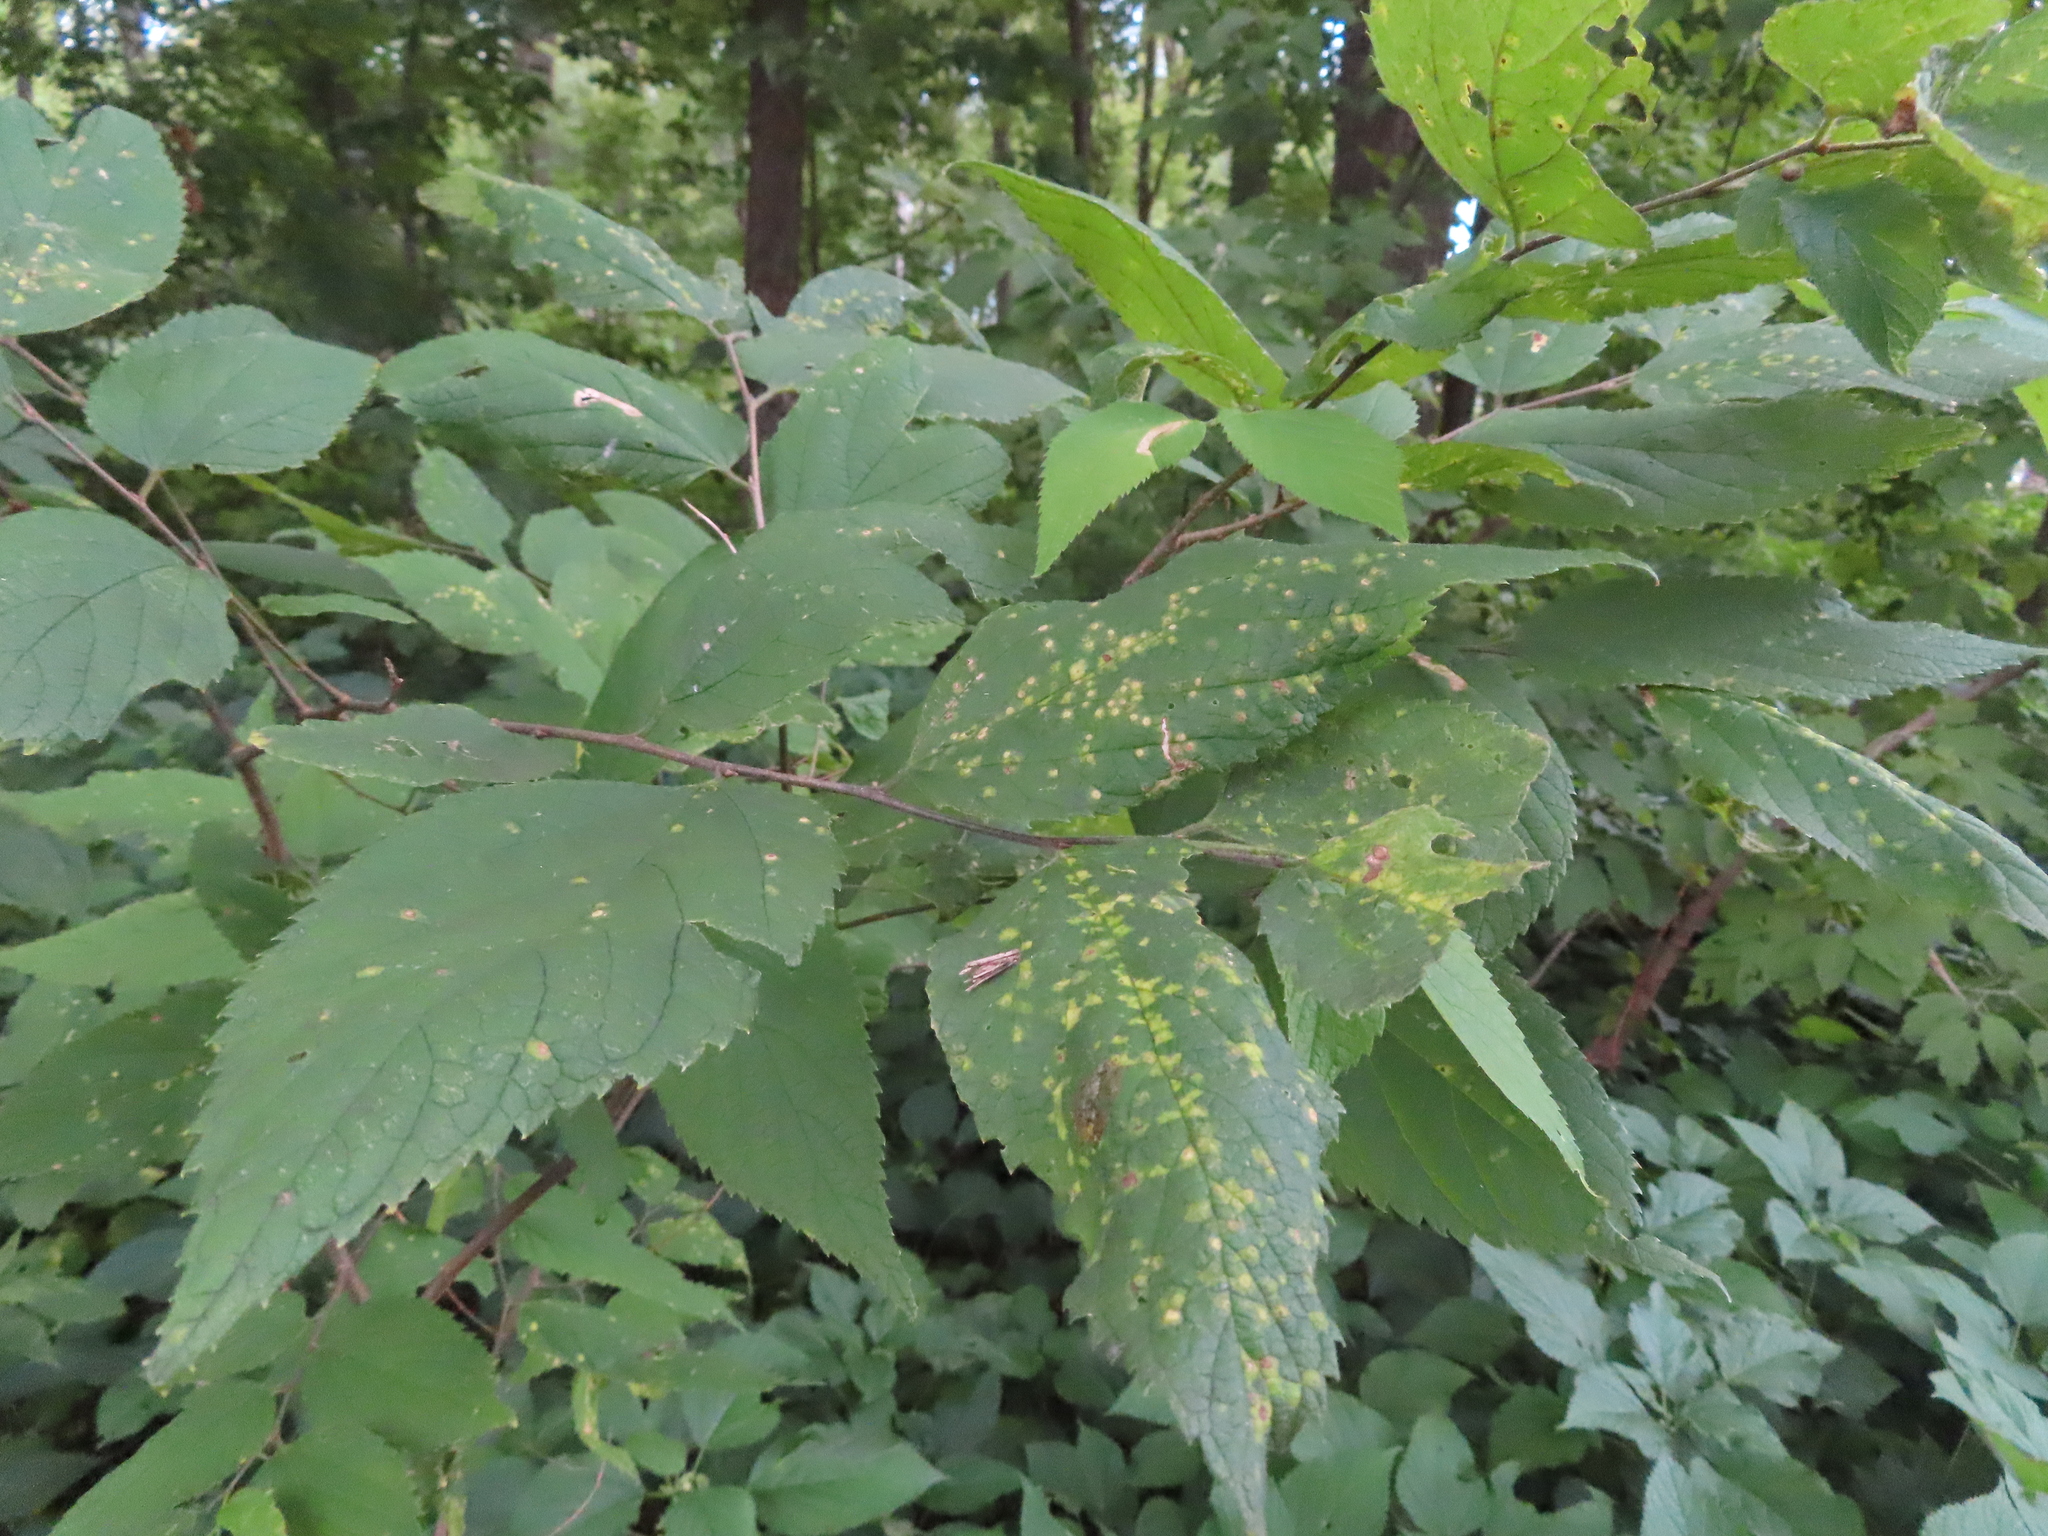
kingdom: Animalia
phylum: Arthropoda
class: Insecta
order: Hemiptera
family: Aphalaridae
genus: Pachypsylla
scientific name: Pachypsylla celtidisvesicula
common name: Hackberry blister gall psyllid
